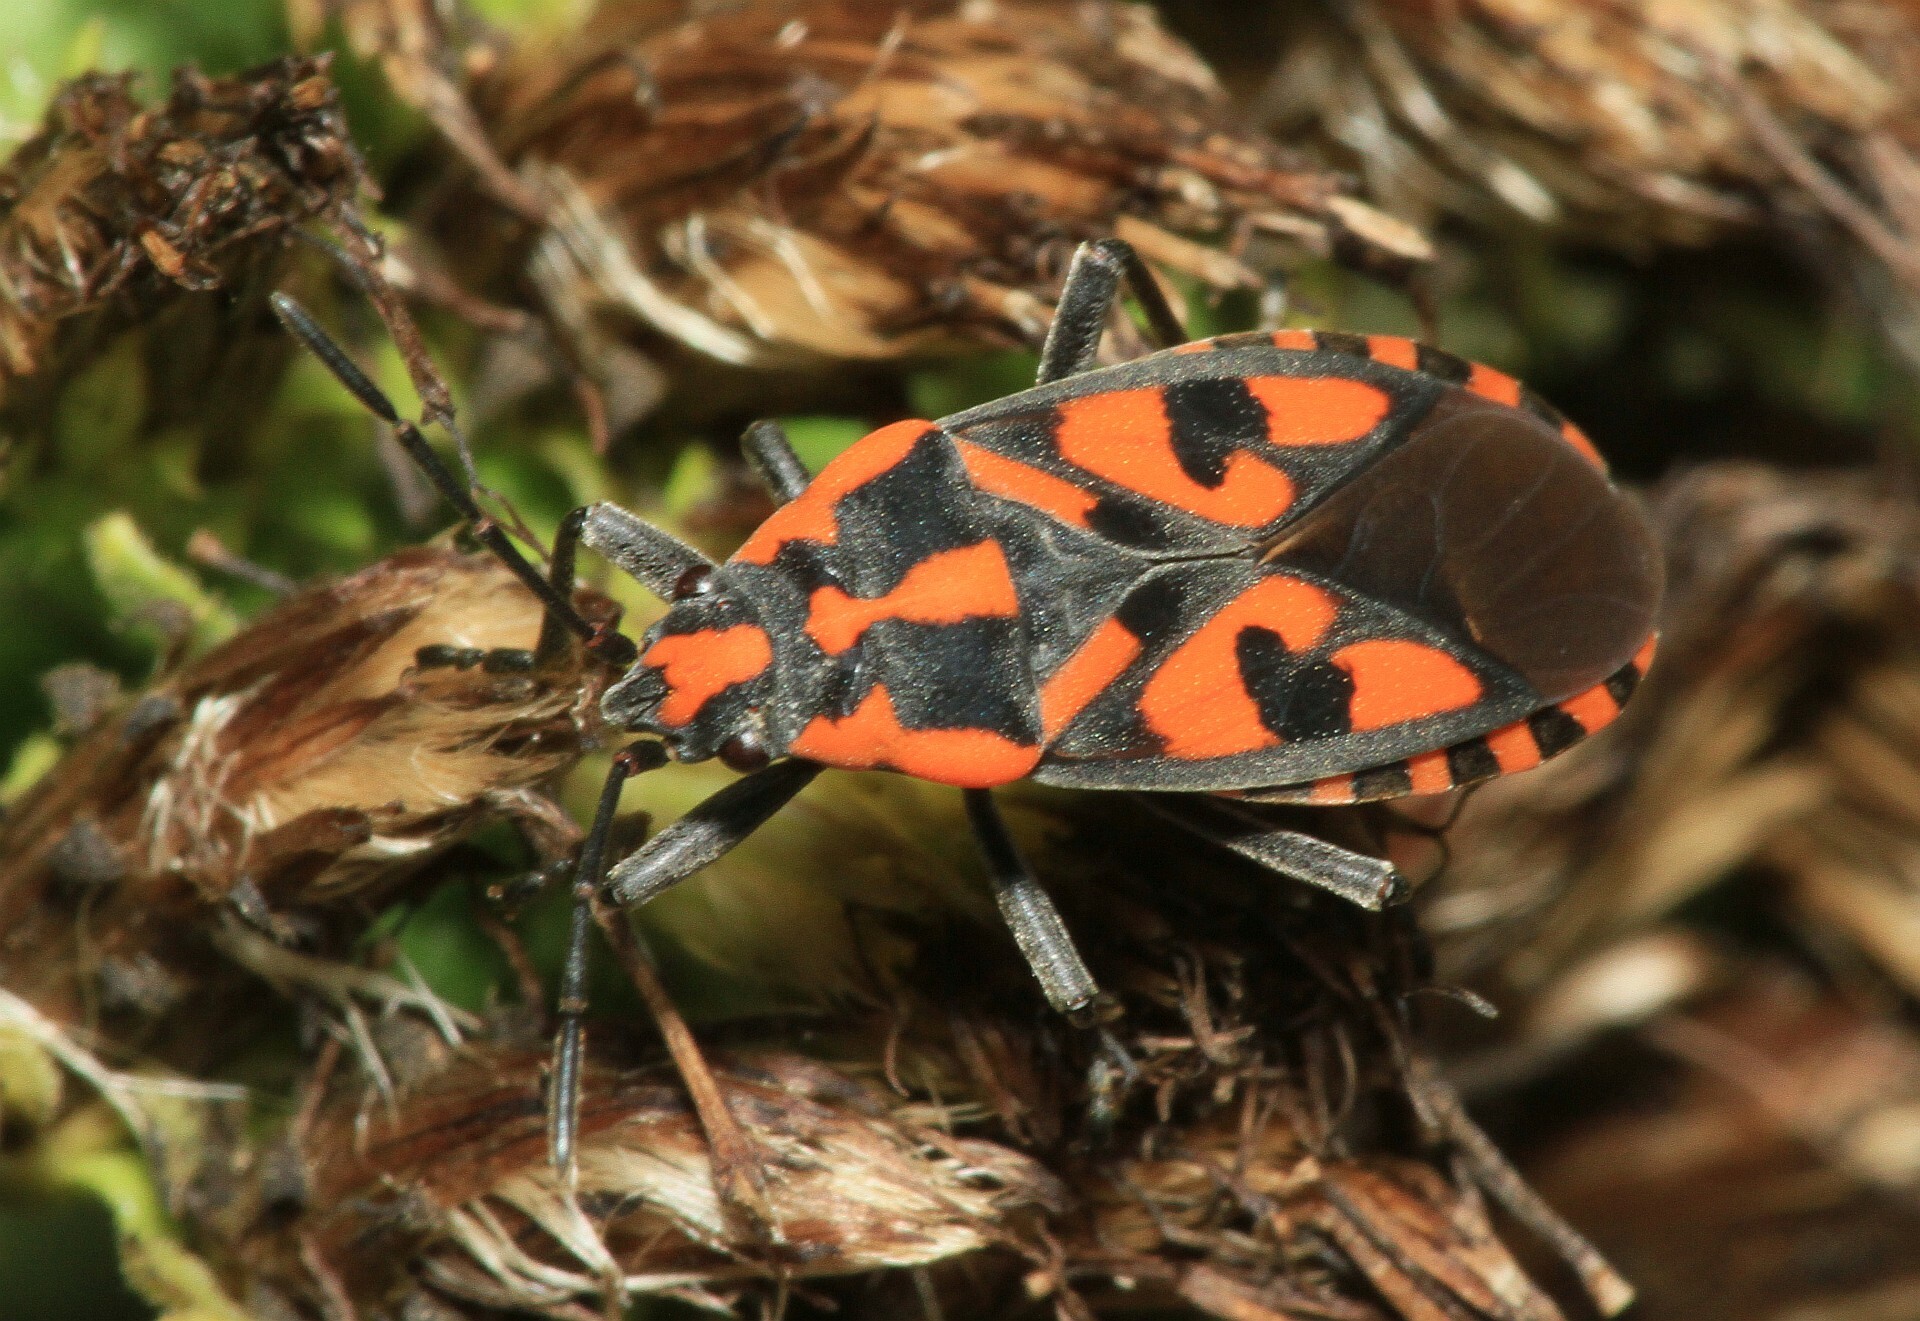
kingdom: Animalia
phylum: Arthropoda
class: Insecta
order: Hemiptera
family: Lygaeidae
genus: Spilostethus
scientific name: Spilostethus saxatilis
